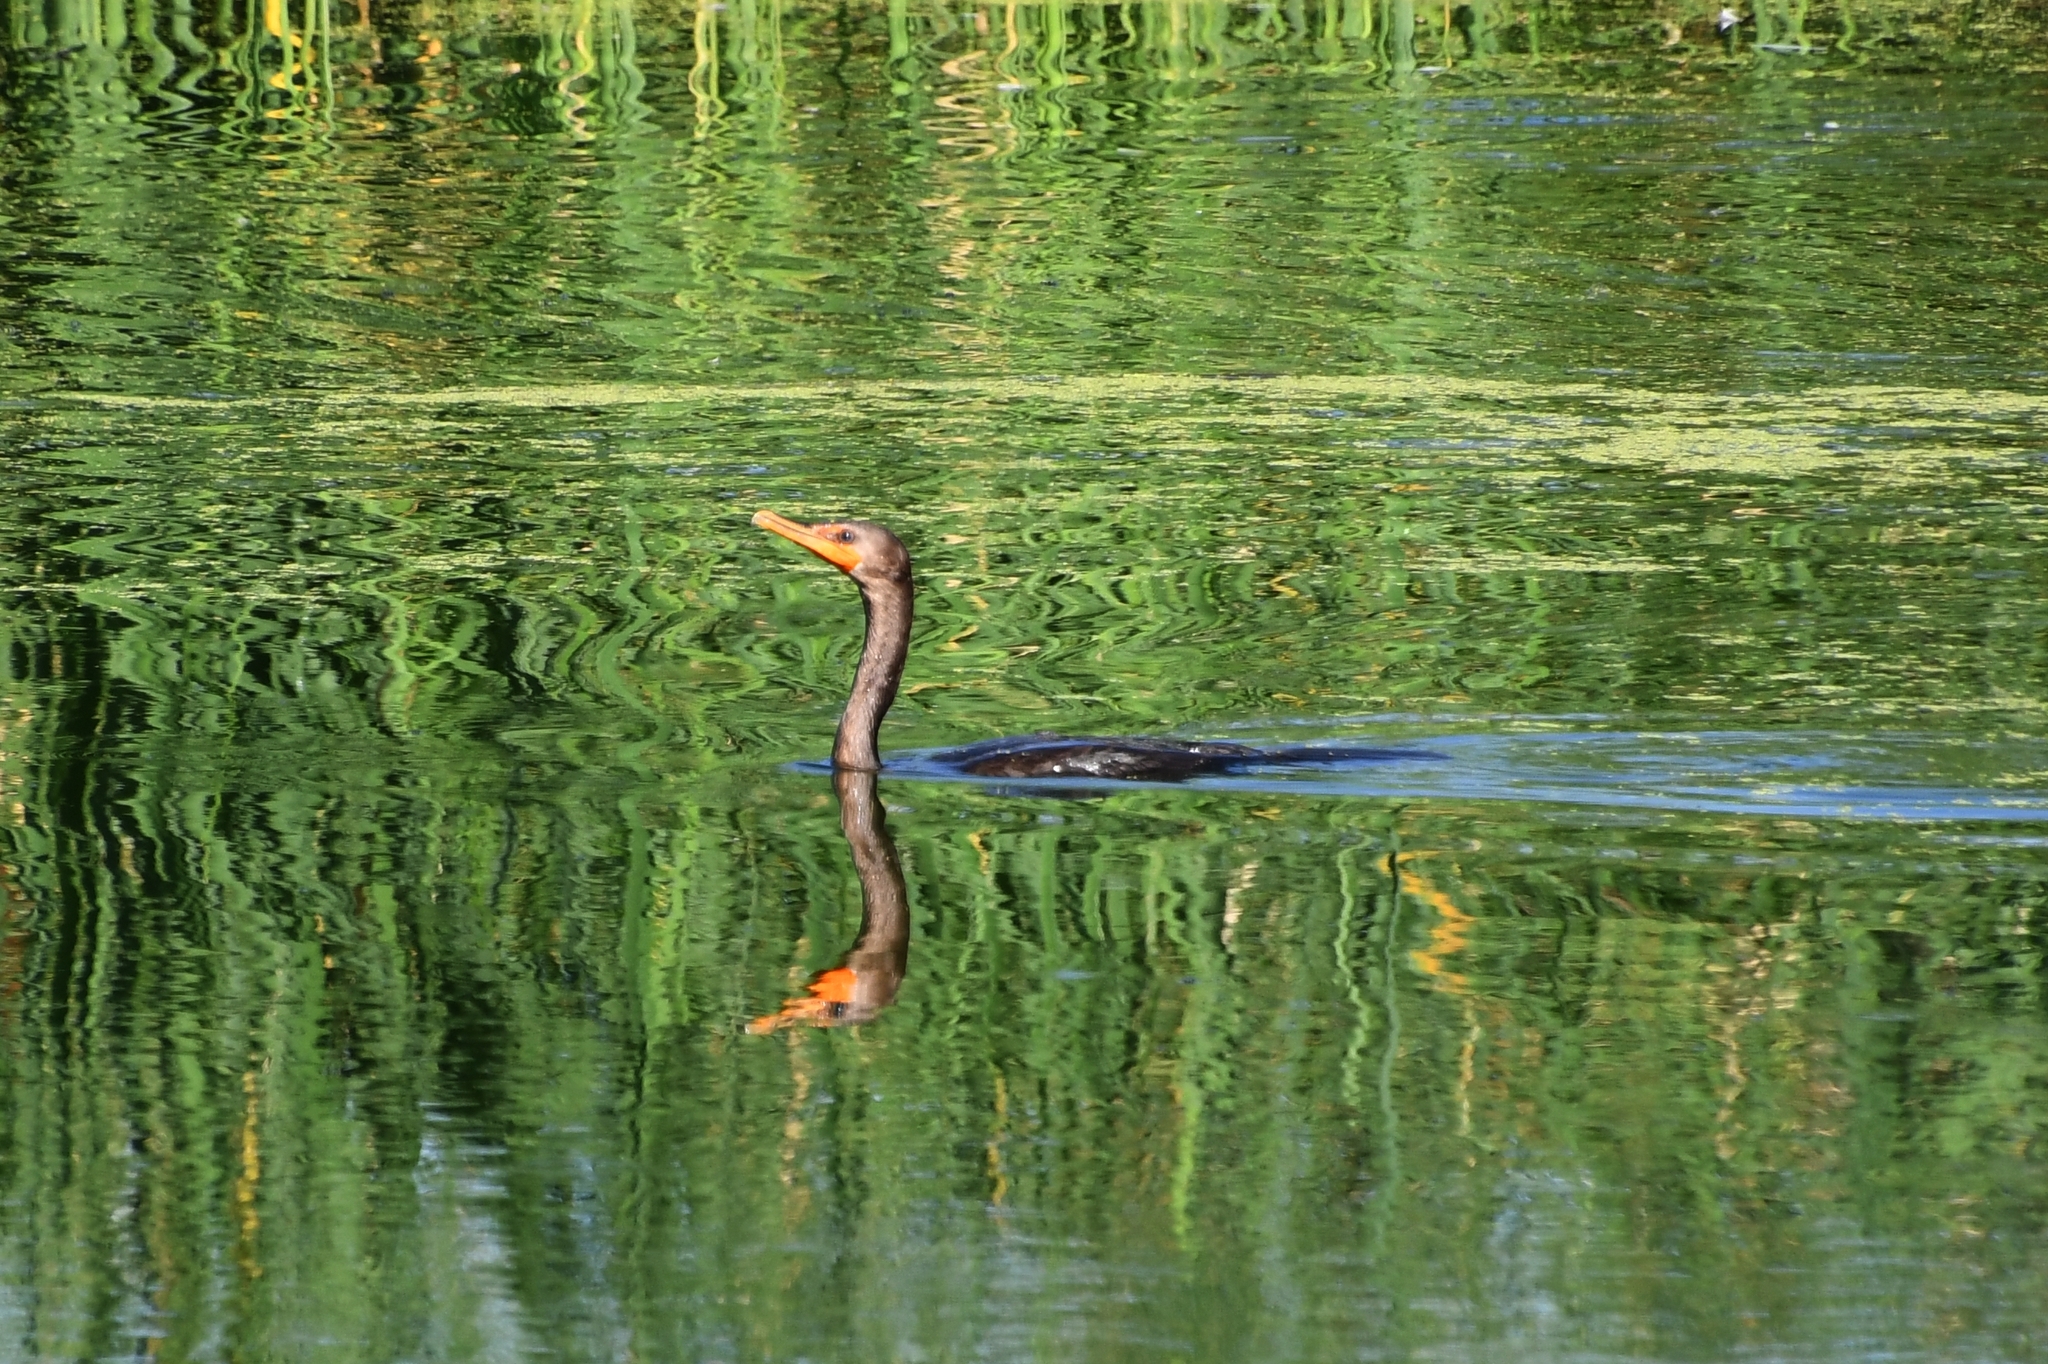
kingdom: Animalia
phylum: Chordata
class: Aves
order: Suliformes
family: Phalacrocoracidae
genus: Phalacrocorax
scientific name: Phalacrocorax auritus
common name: Double-crested cormorant
